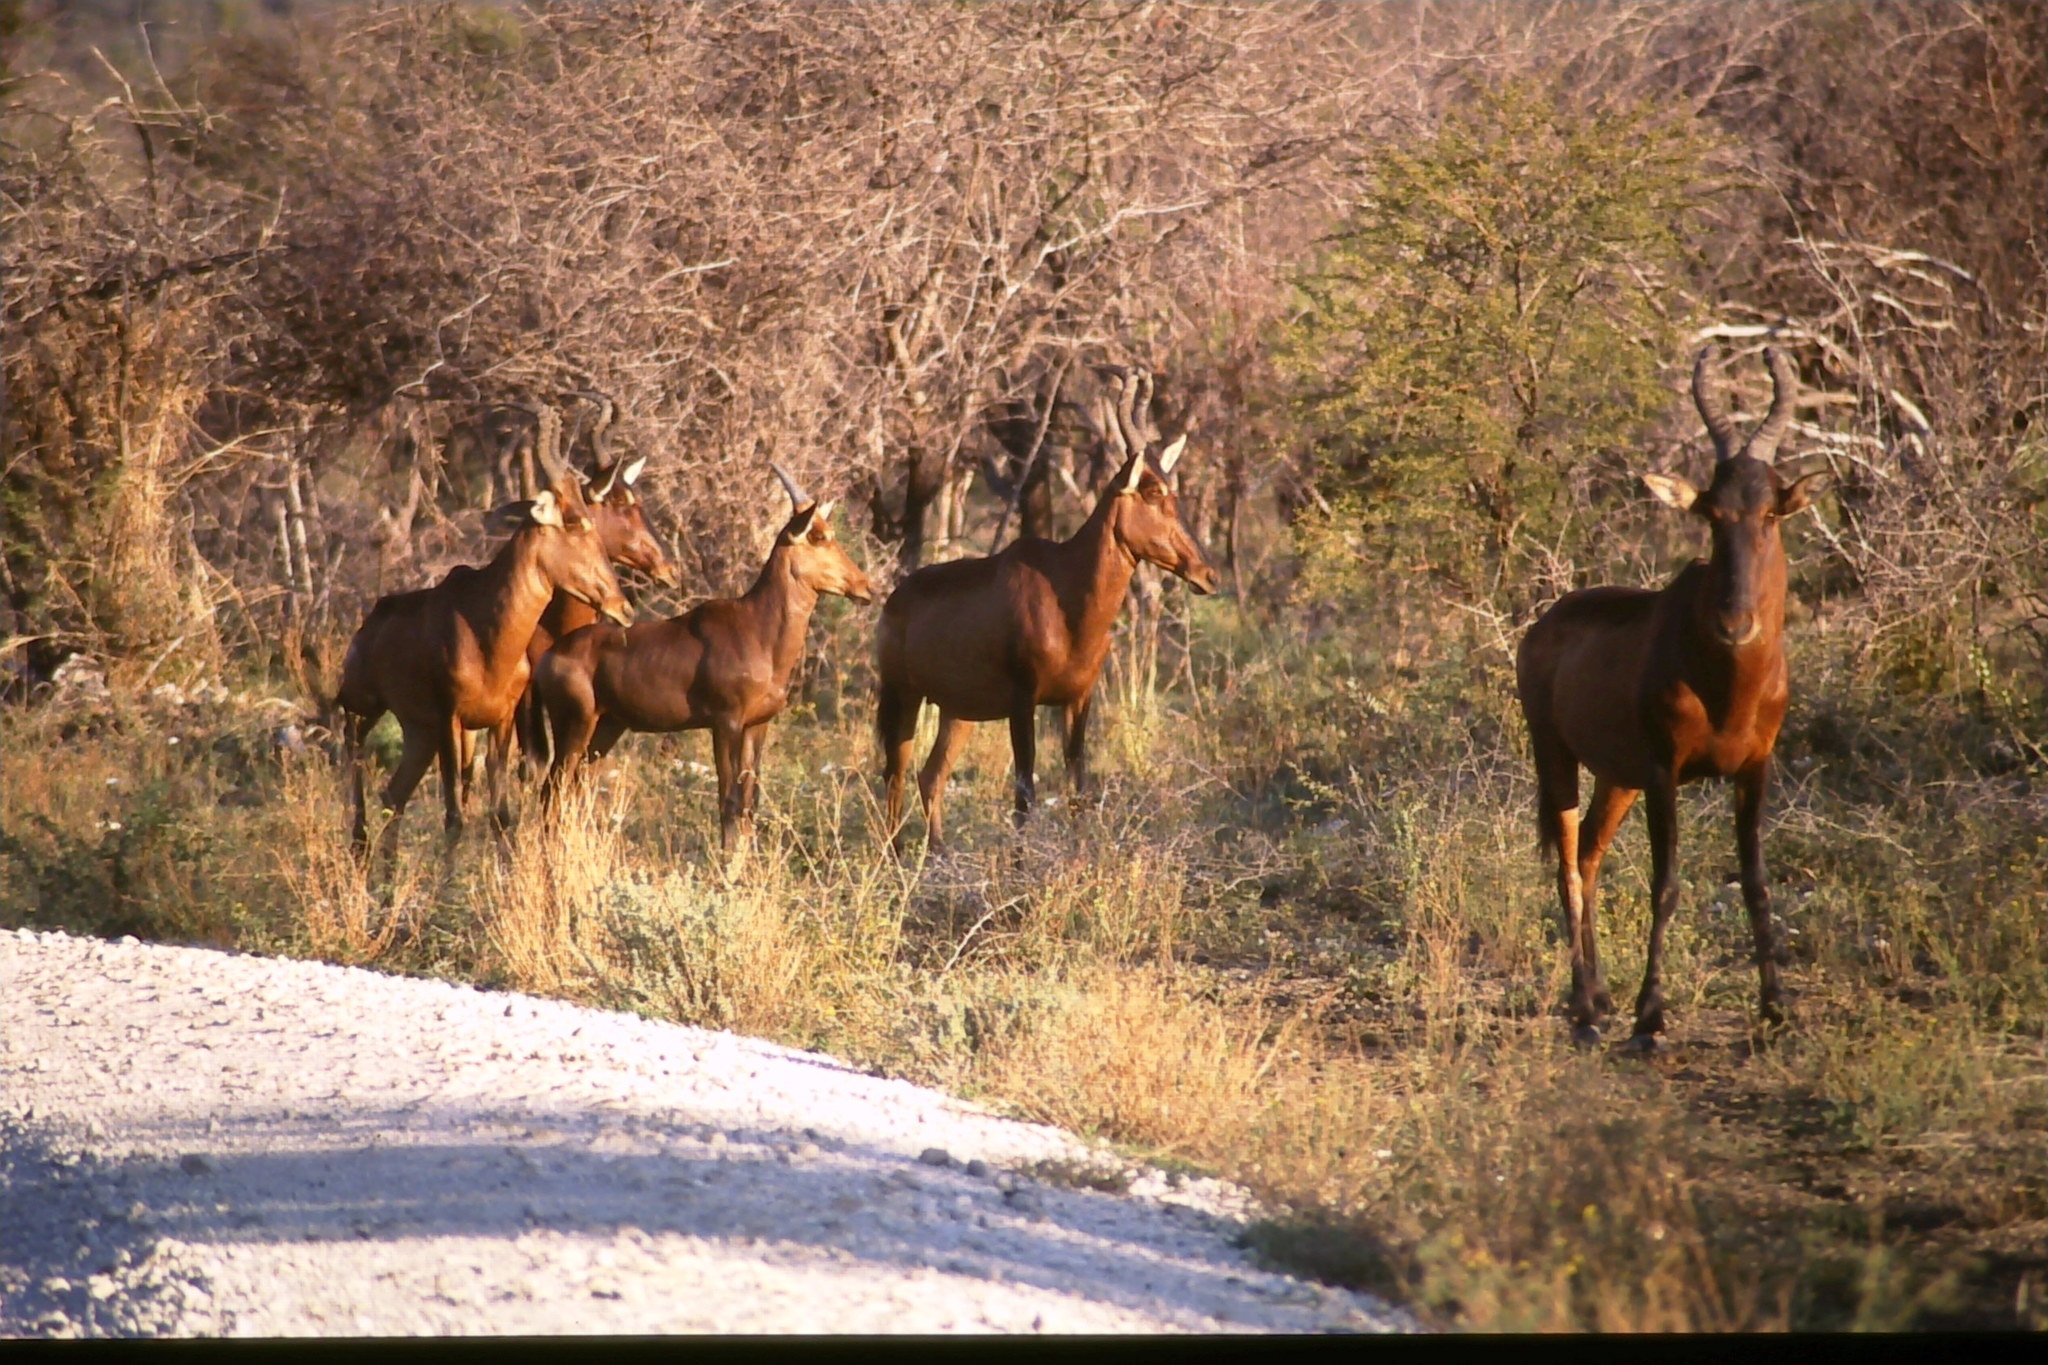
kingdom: Animalia
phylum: Chordata
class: Mammalia
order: Artiodactyla
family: Bovidae
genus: Alcelaphus
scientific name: Alcelaphus caama
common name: Red hartebeest
